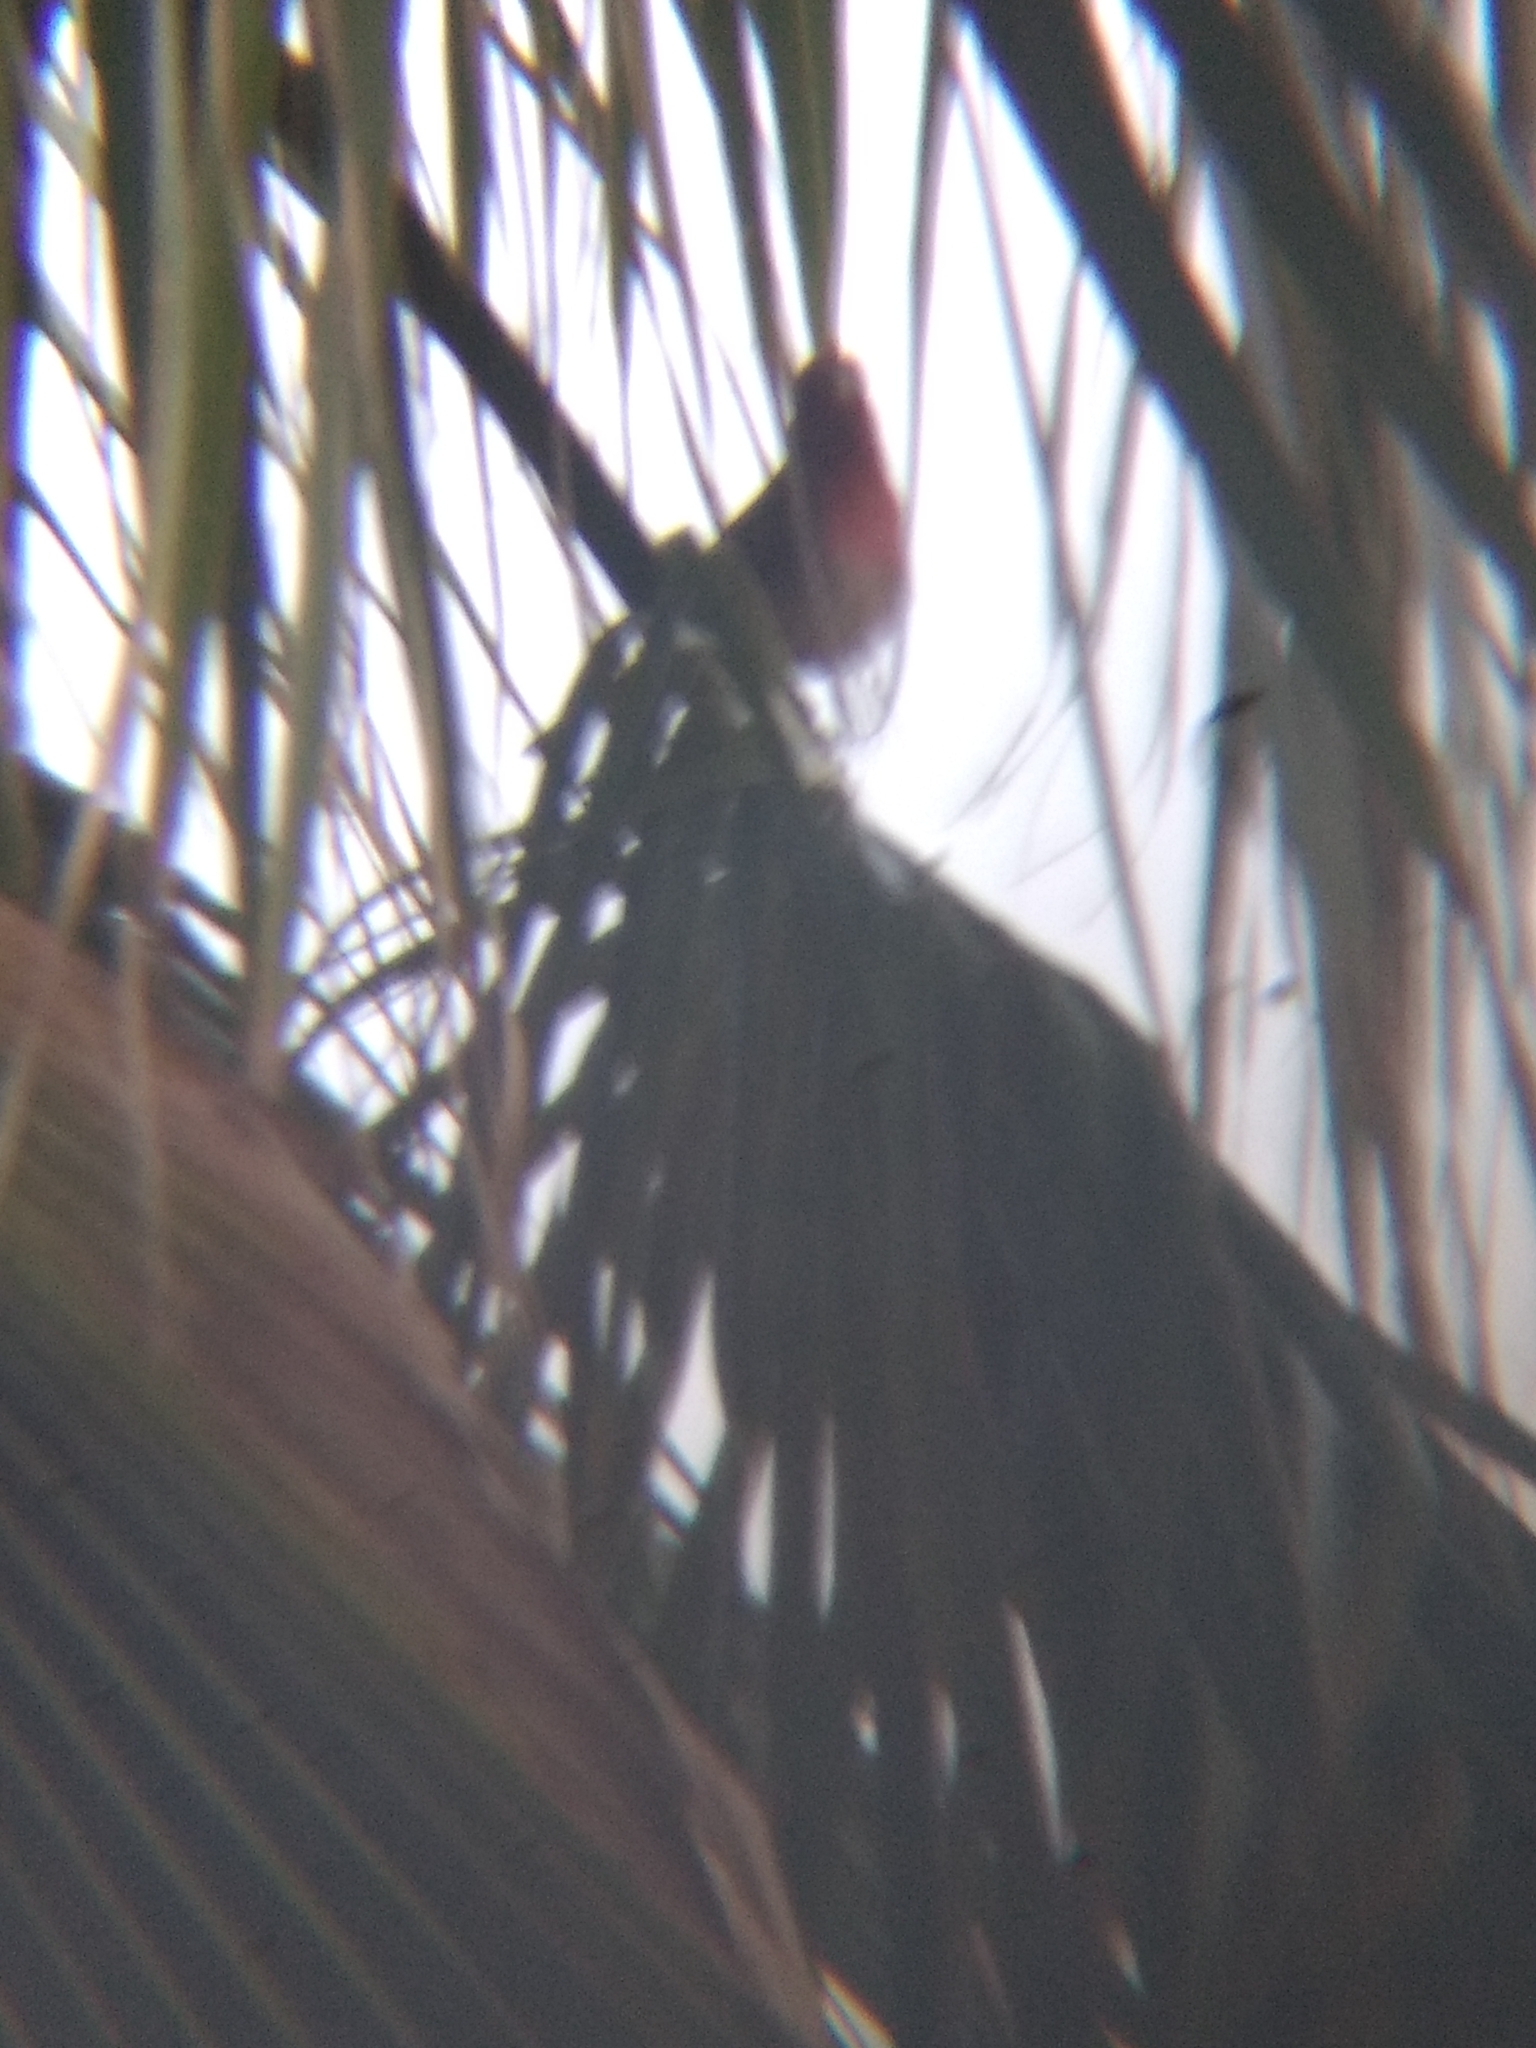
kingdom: Animalia
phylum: Chordata
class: Aves
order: Passeriformes
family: Fringillidae
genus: Haemorhous
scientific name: Haemorhous mexicanus
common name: House finch
